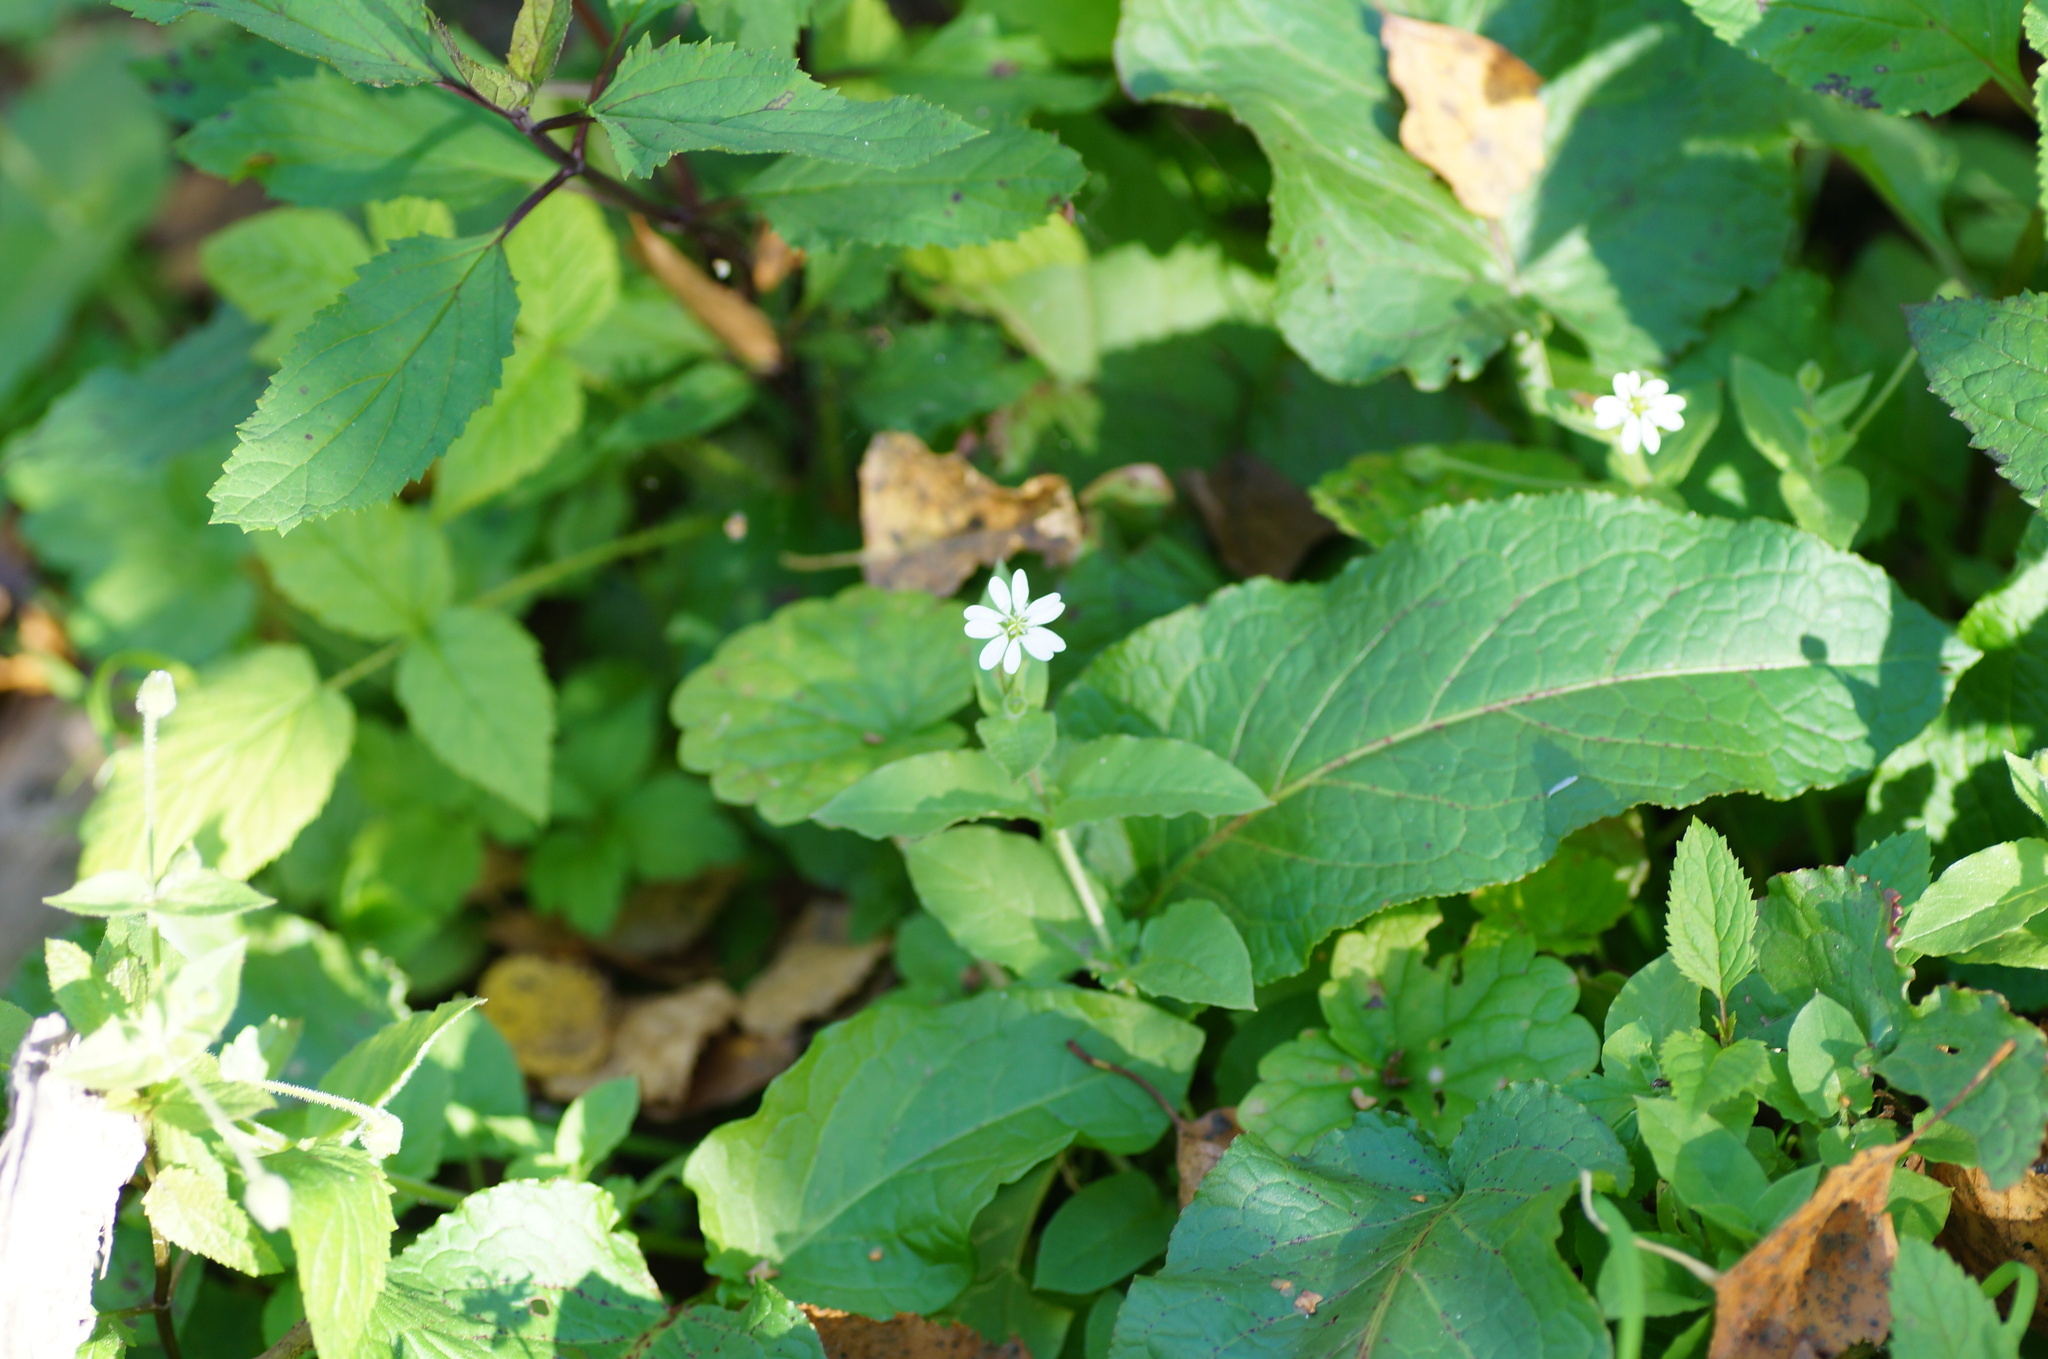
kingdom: Plantae
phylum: Tracheophyta
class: Magnoliopsida
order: Caryophyllales
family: Caryophyllaceae
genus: Stellaria
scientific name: Stellaria aquatica
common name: Water chickweed
